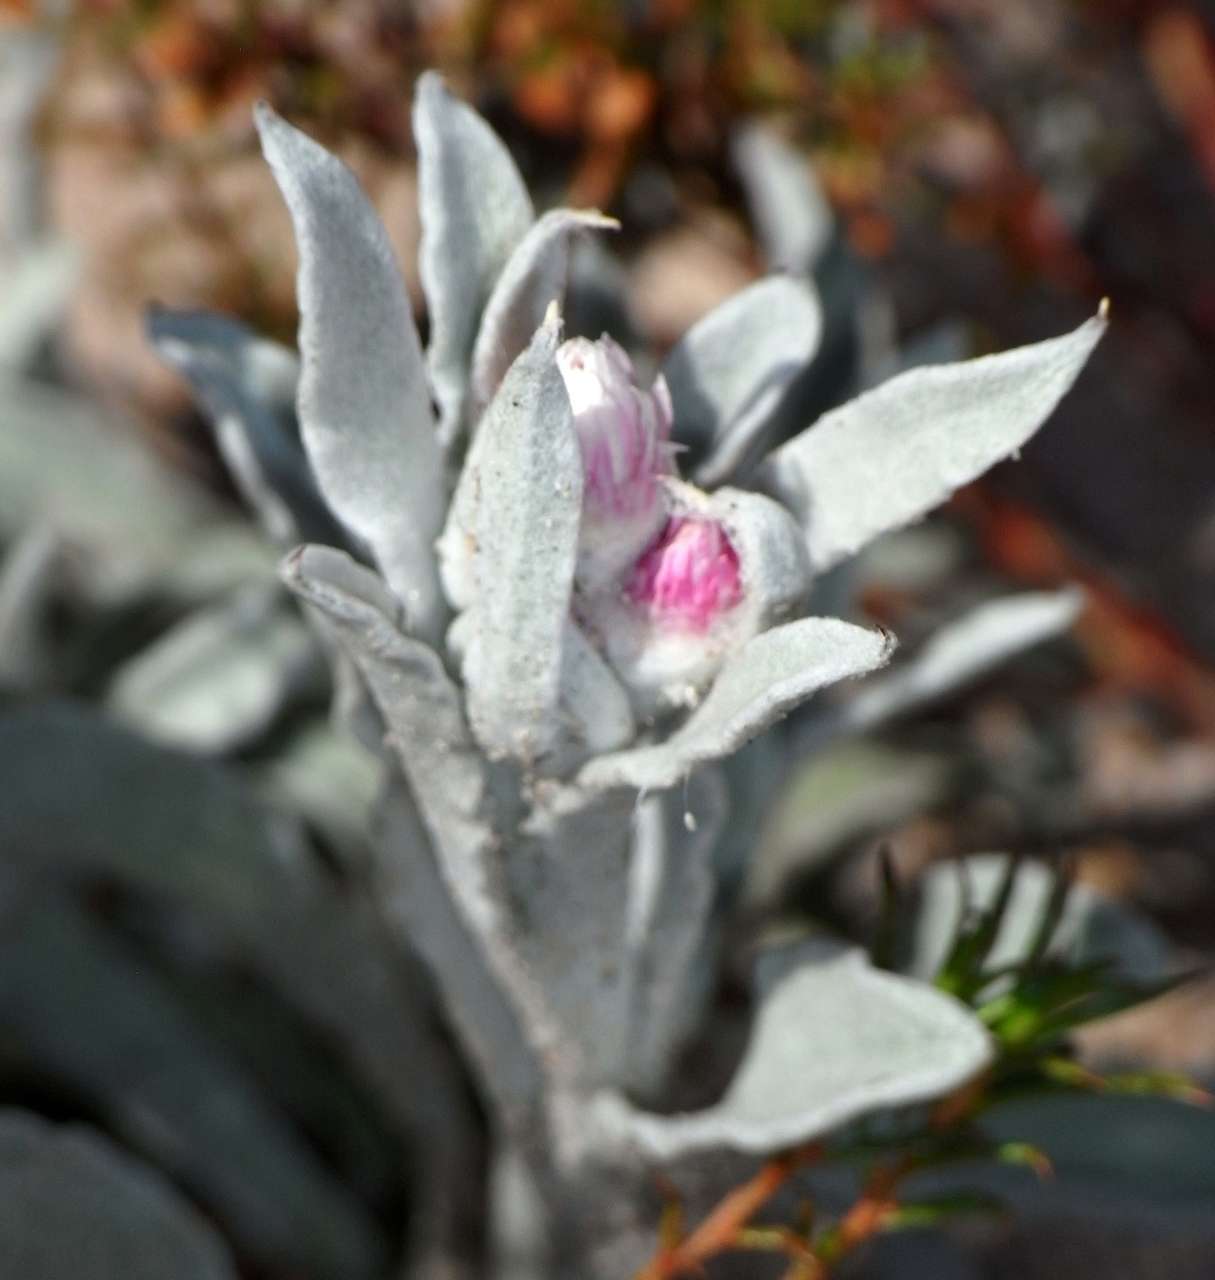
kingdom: Plantae
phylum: Tracheophyta
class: Magnoliopsida
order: Asterales
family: Asteraceae
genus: Argentipallium
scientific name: Argentipallium blandowskianum
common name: Woolly everlasting
